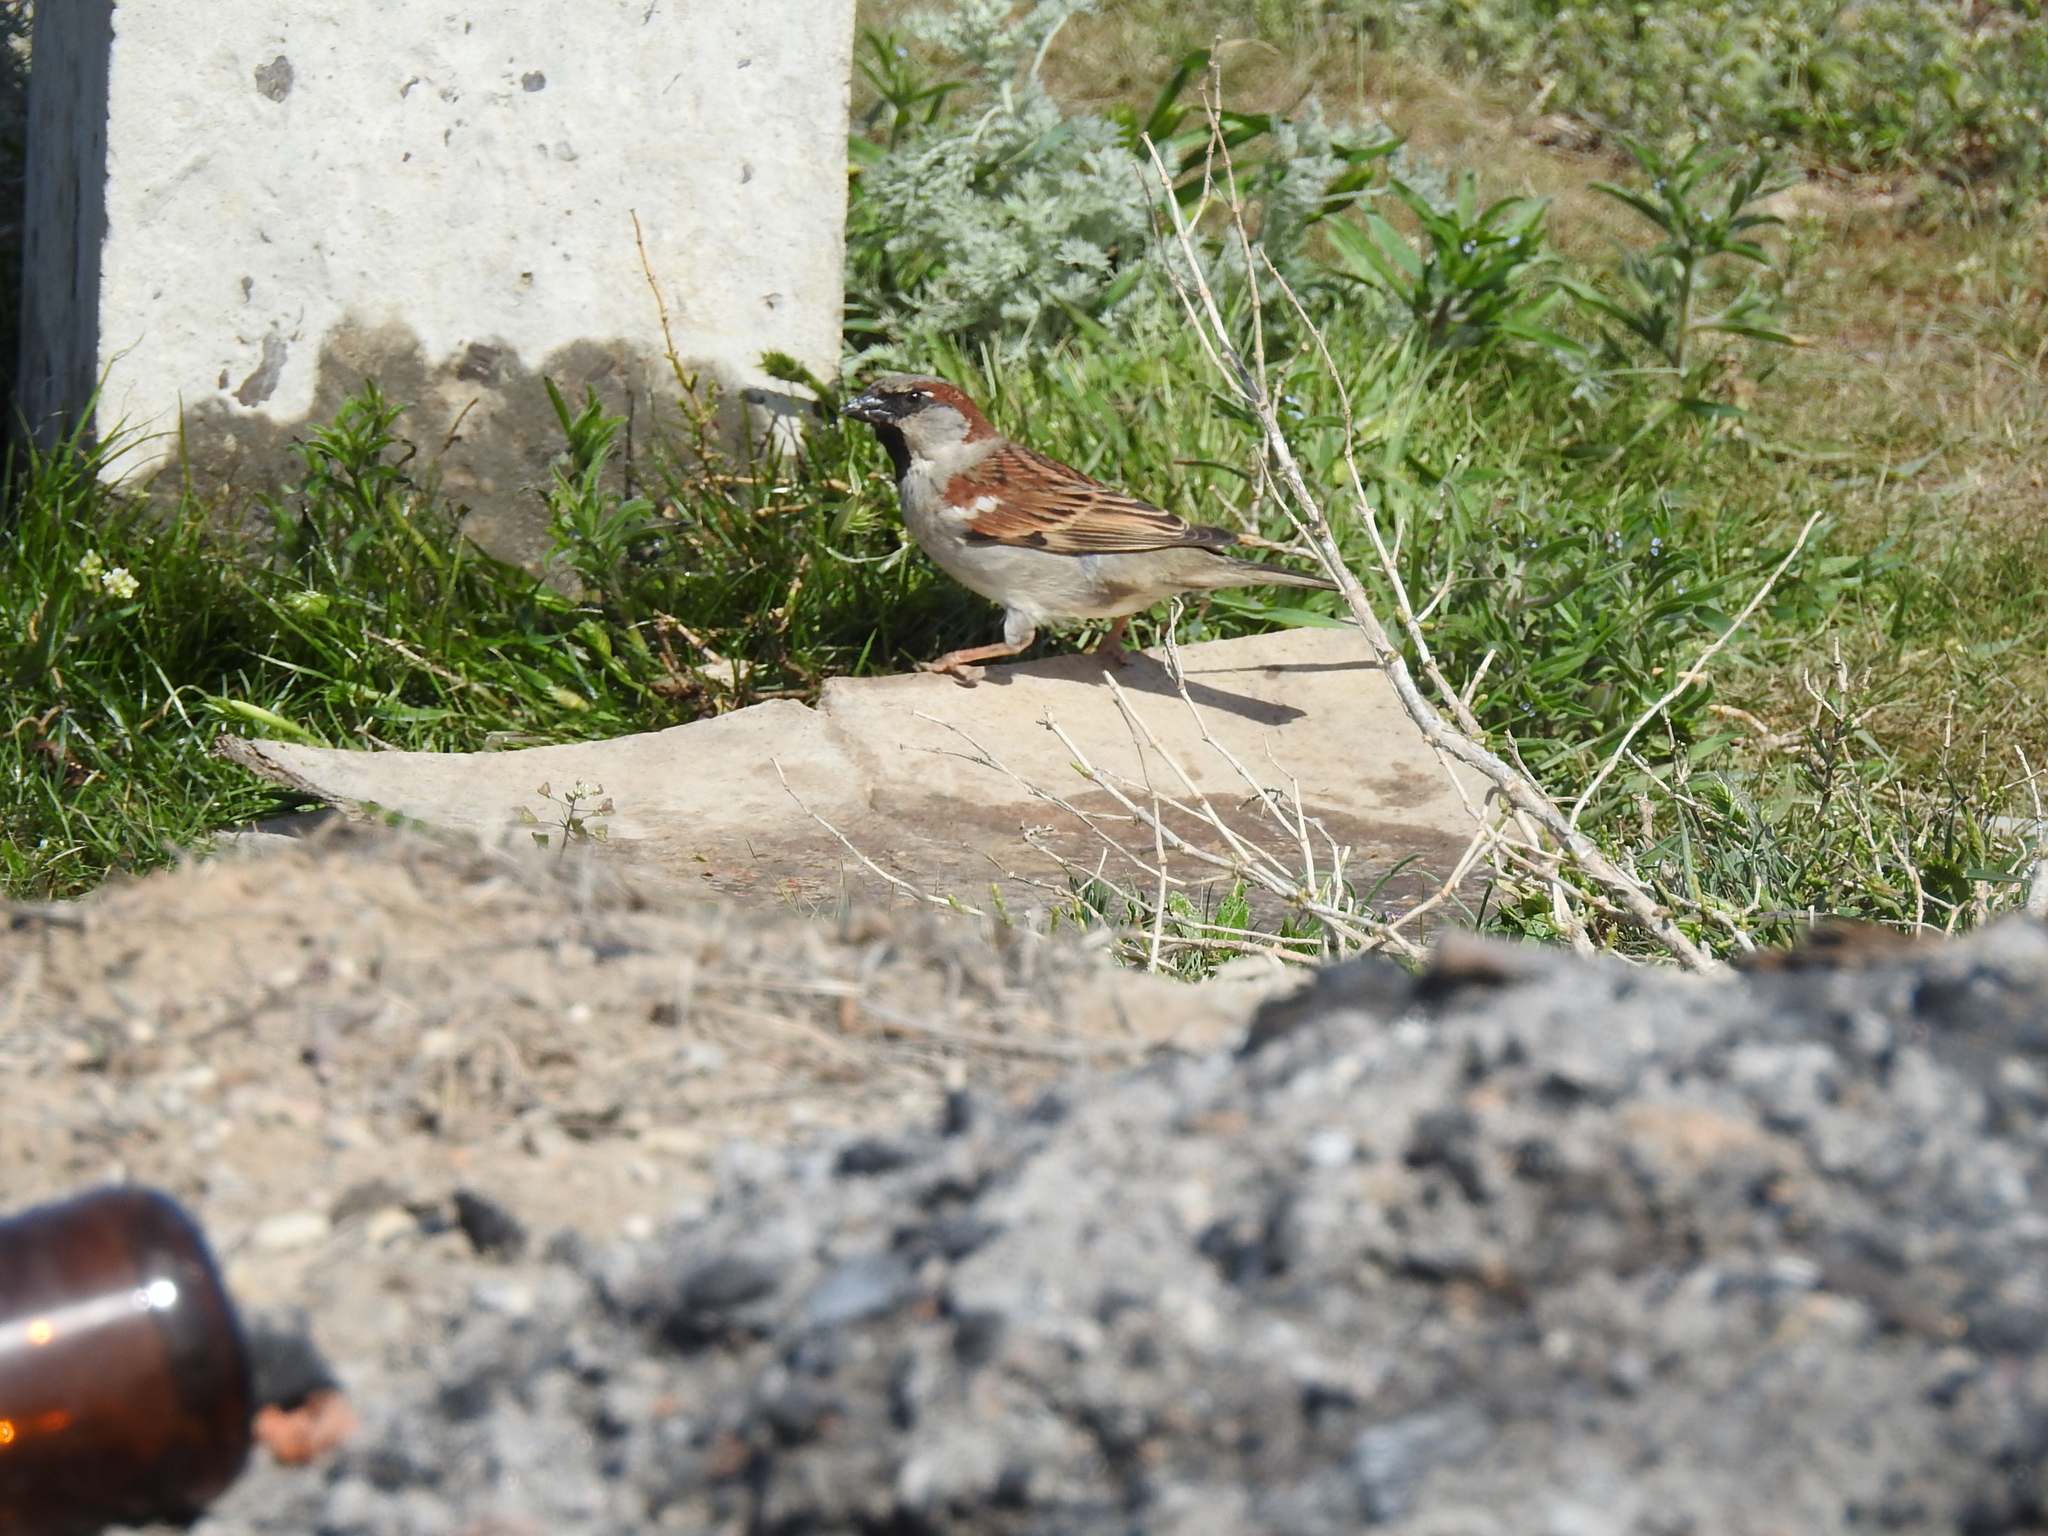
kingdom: Animalia
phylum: Chordata
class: Aves
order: Passeriformes
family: Passeridae
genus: Passer
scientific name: Passer domesticus
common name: House sparrow
